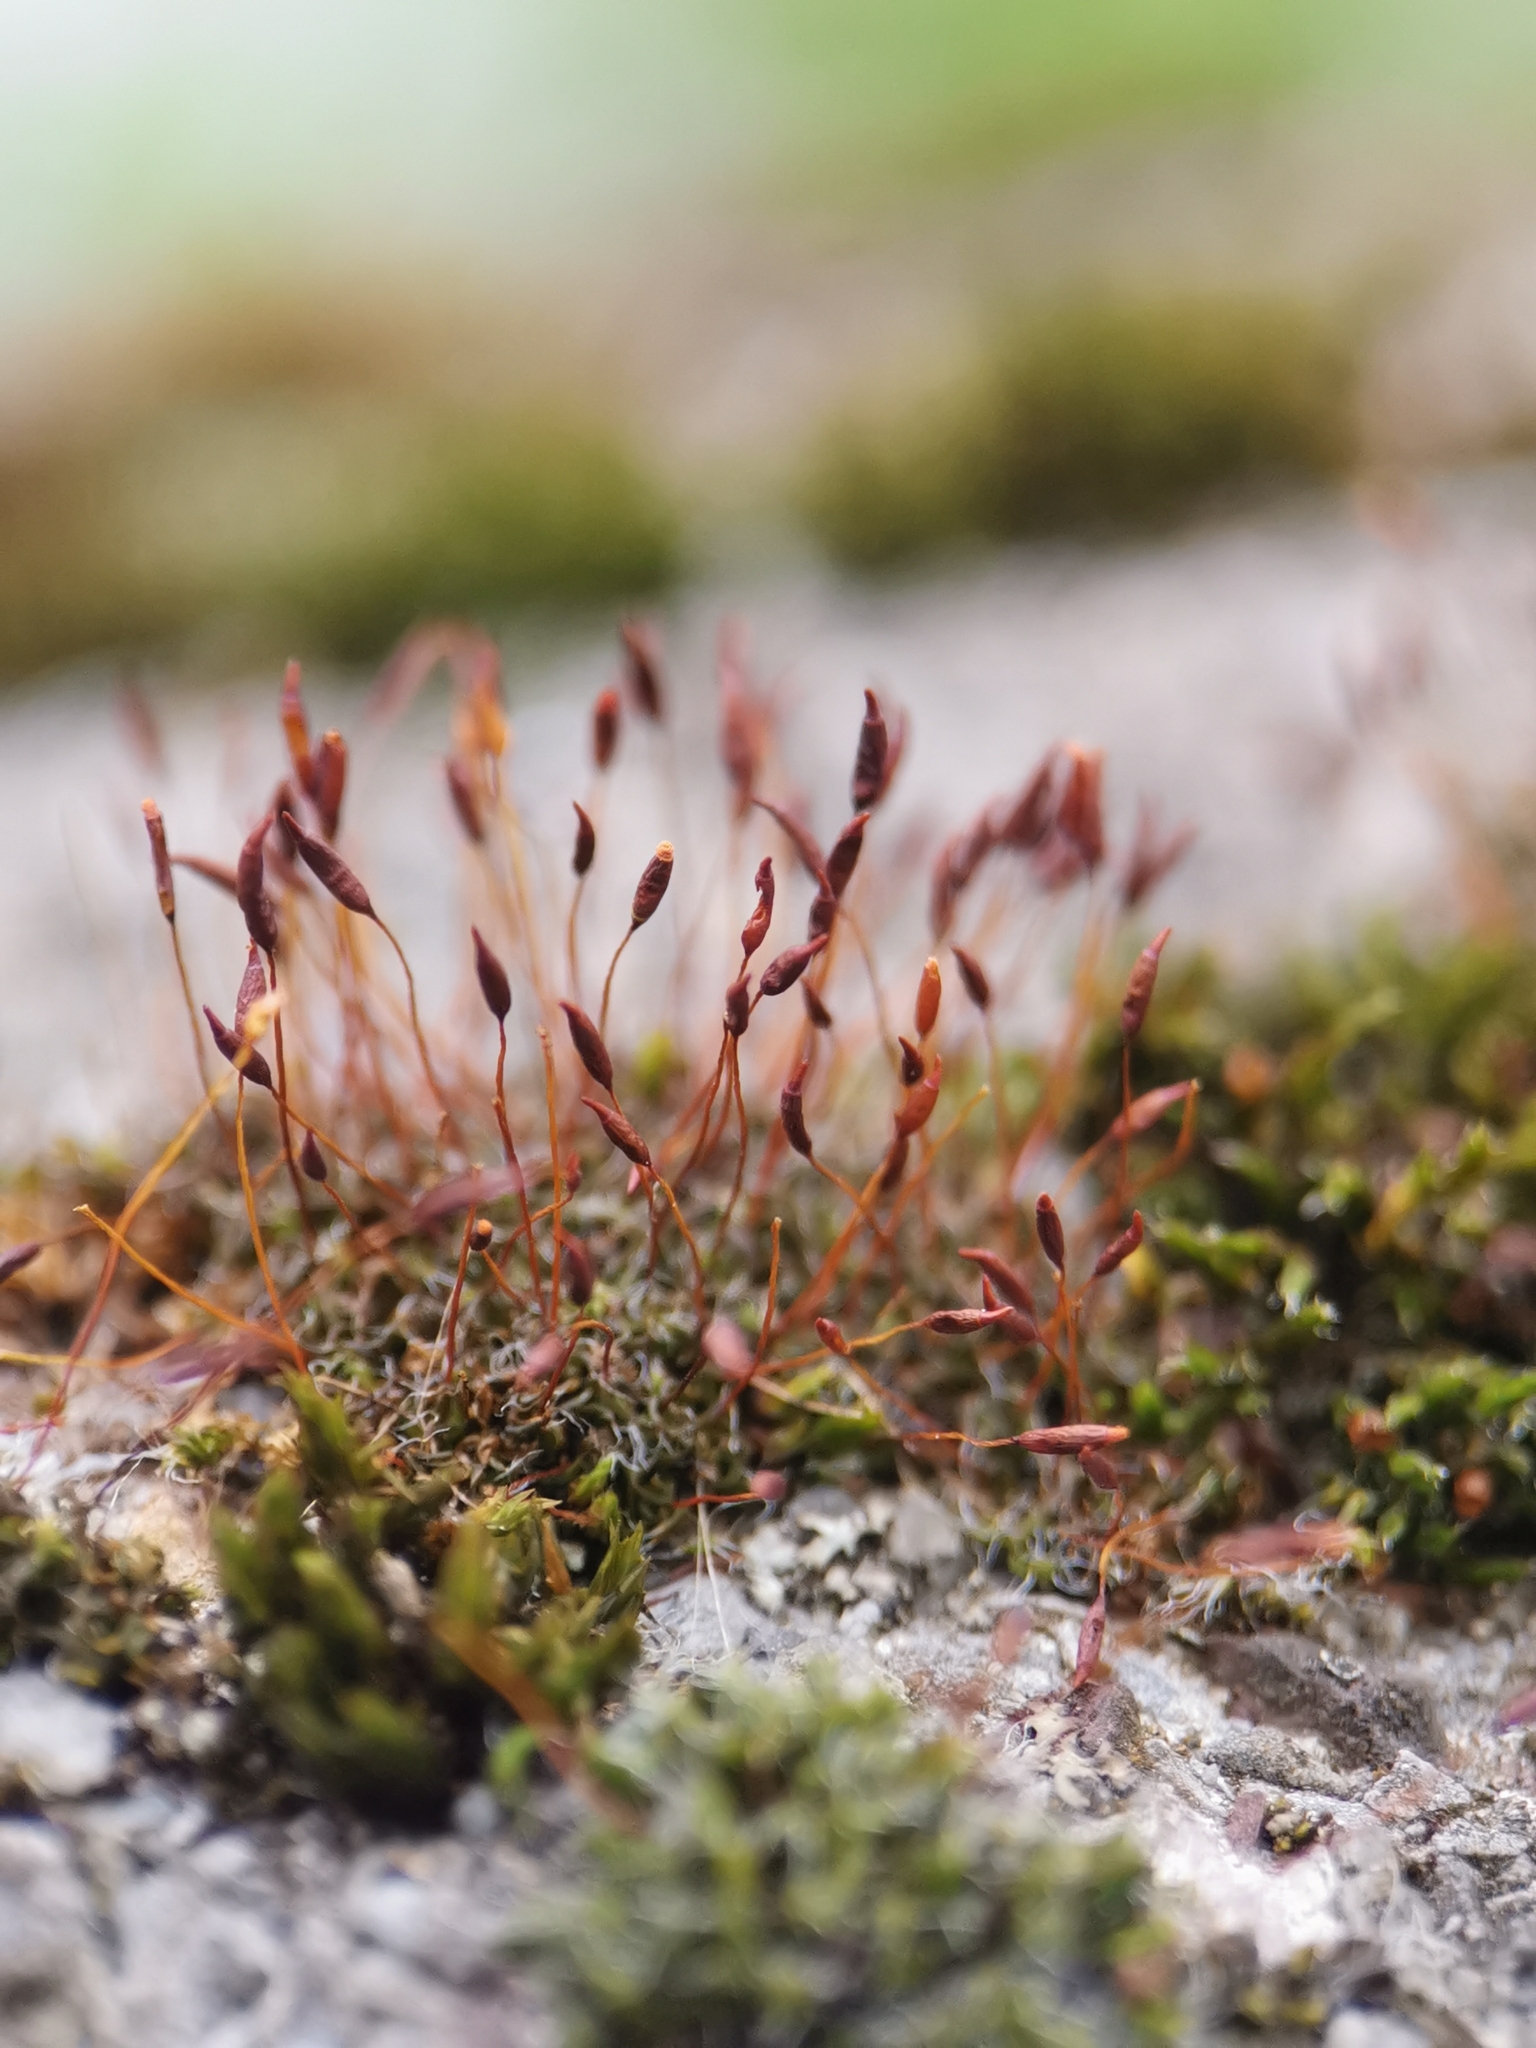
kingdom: Plantae
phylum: Bryophyta
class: Bryopsida
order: Pottiales
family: Pottiaceae
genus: Tortula
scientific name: Tortula muralis
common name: Wall screw-moss
